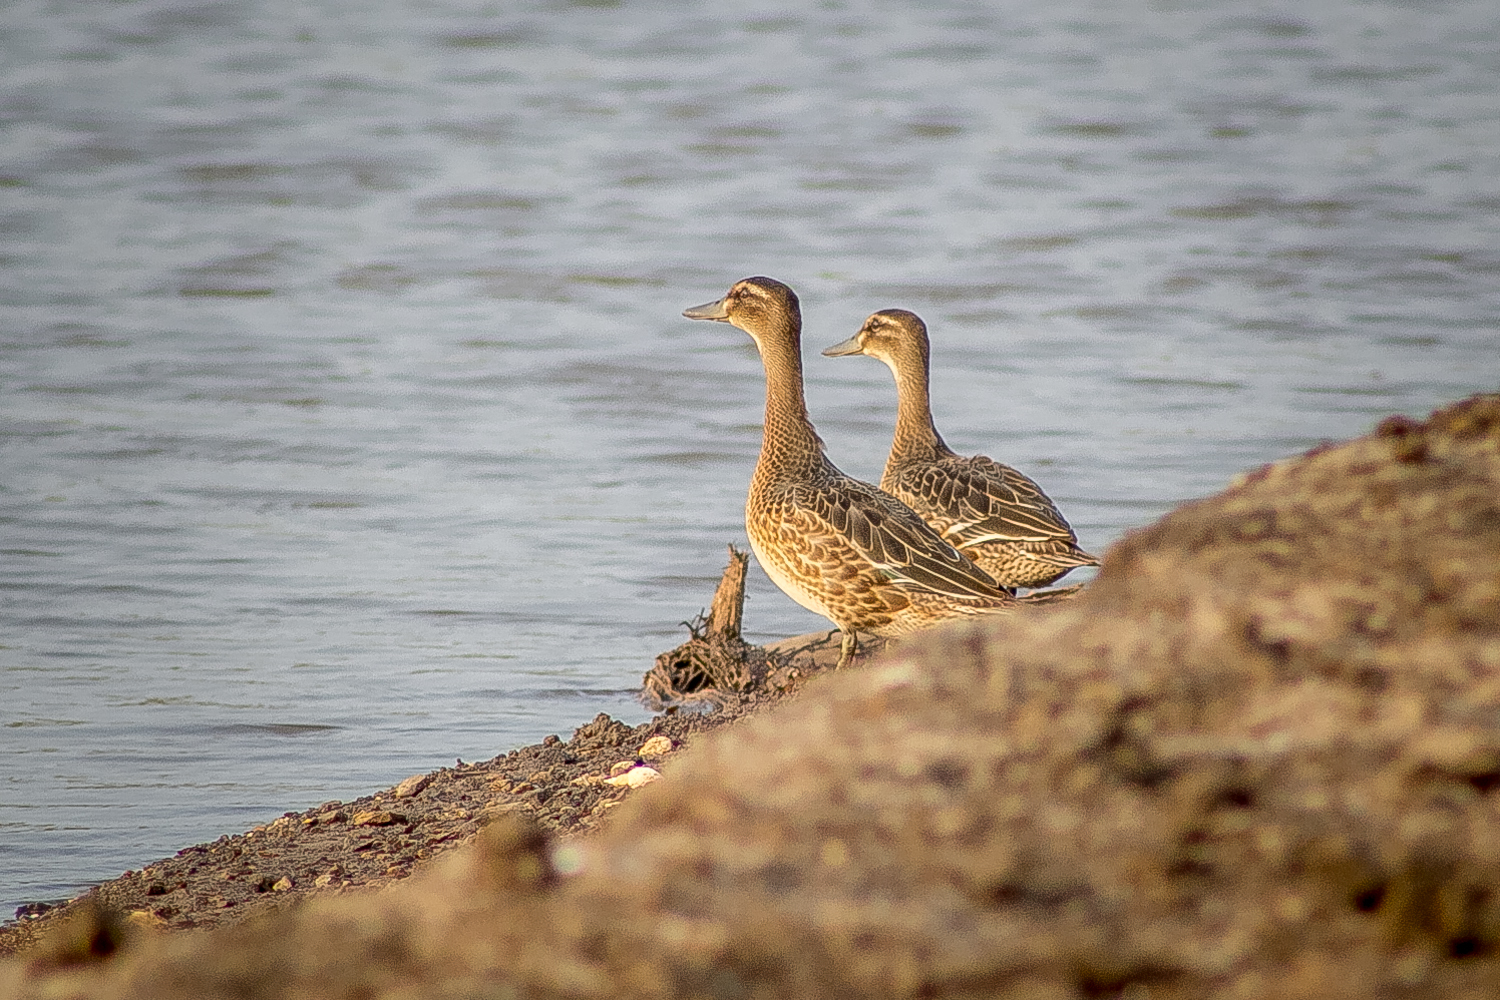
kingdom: Animalia
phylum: Chordata
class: Aves
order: Anseriformes
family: Anatidae
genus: Spatula
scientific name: Spatula querquedula
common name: Garganey
